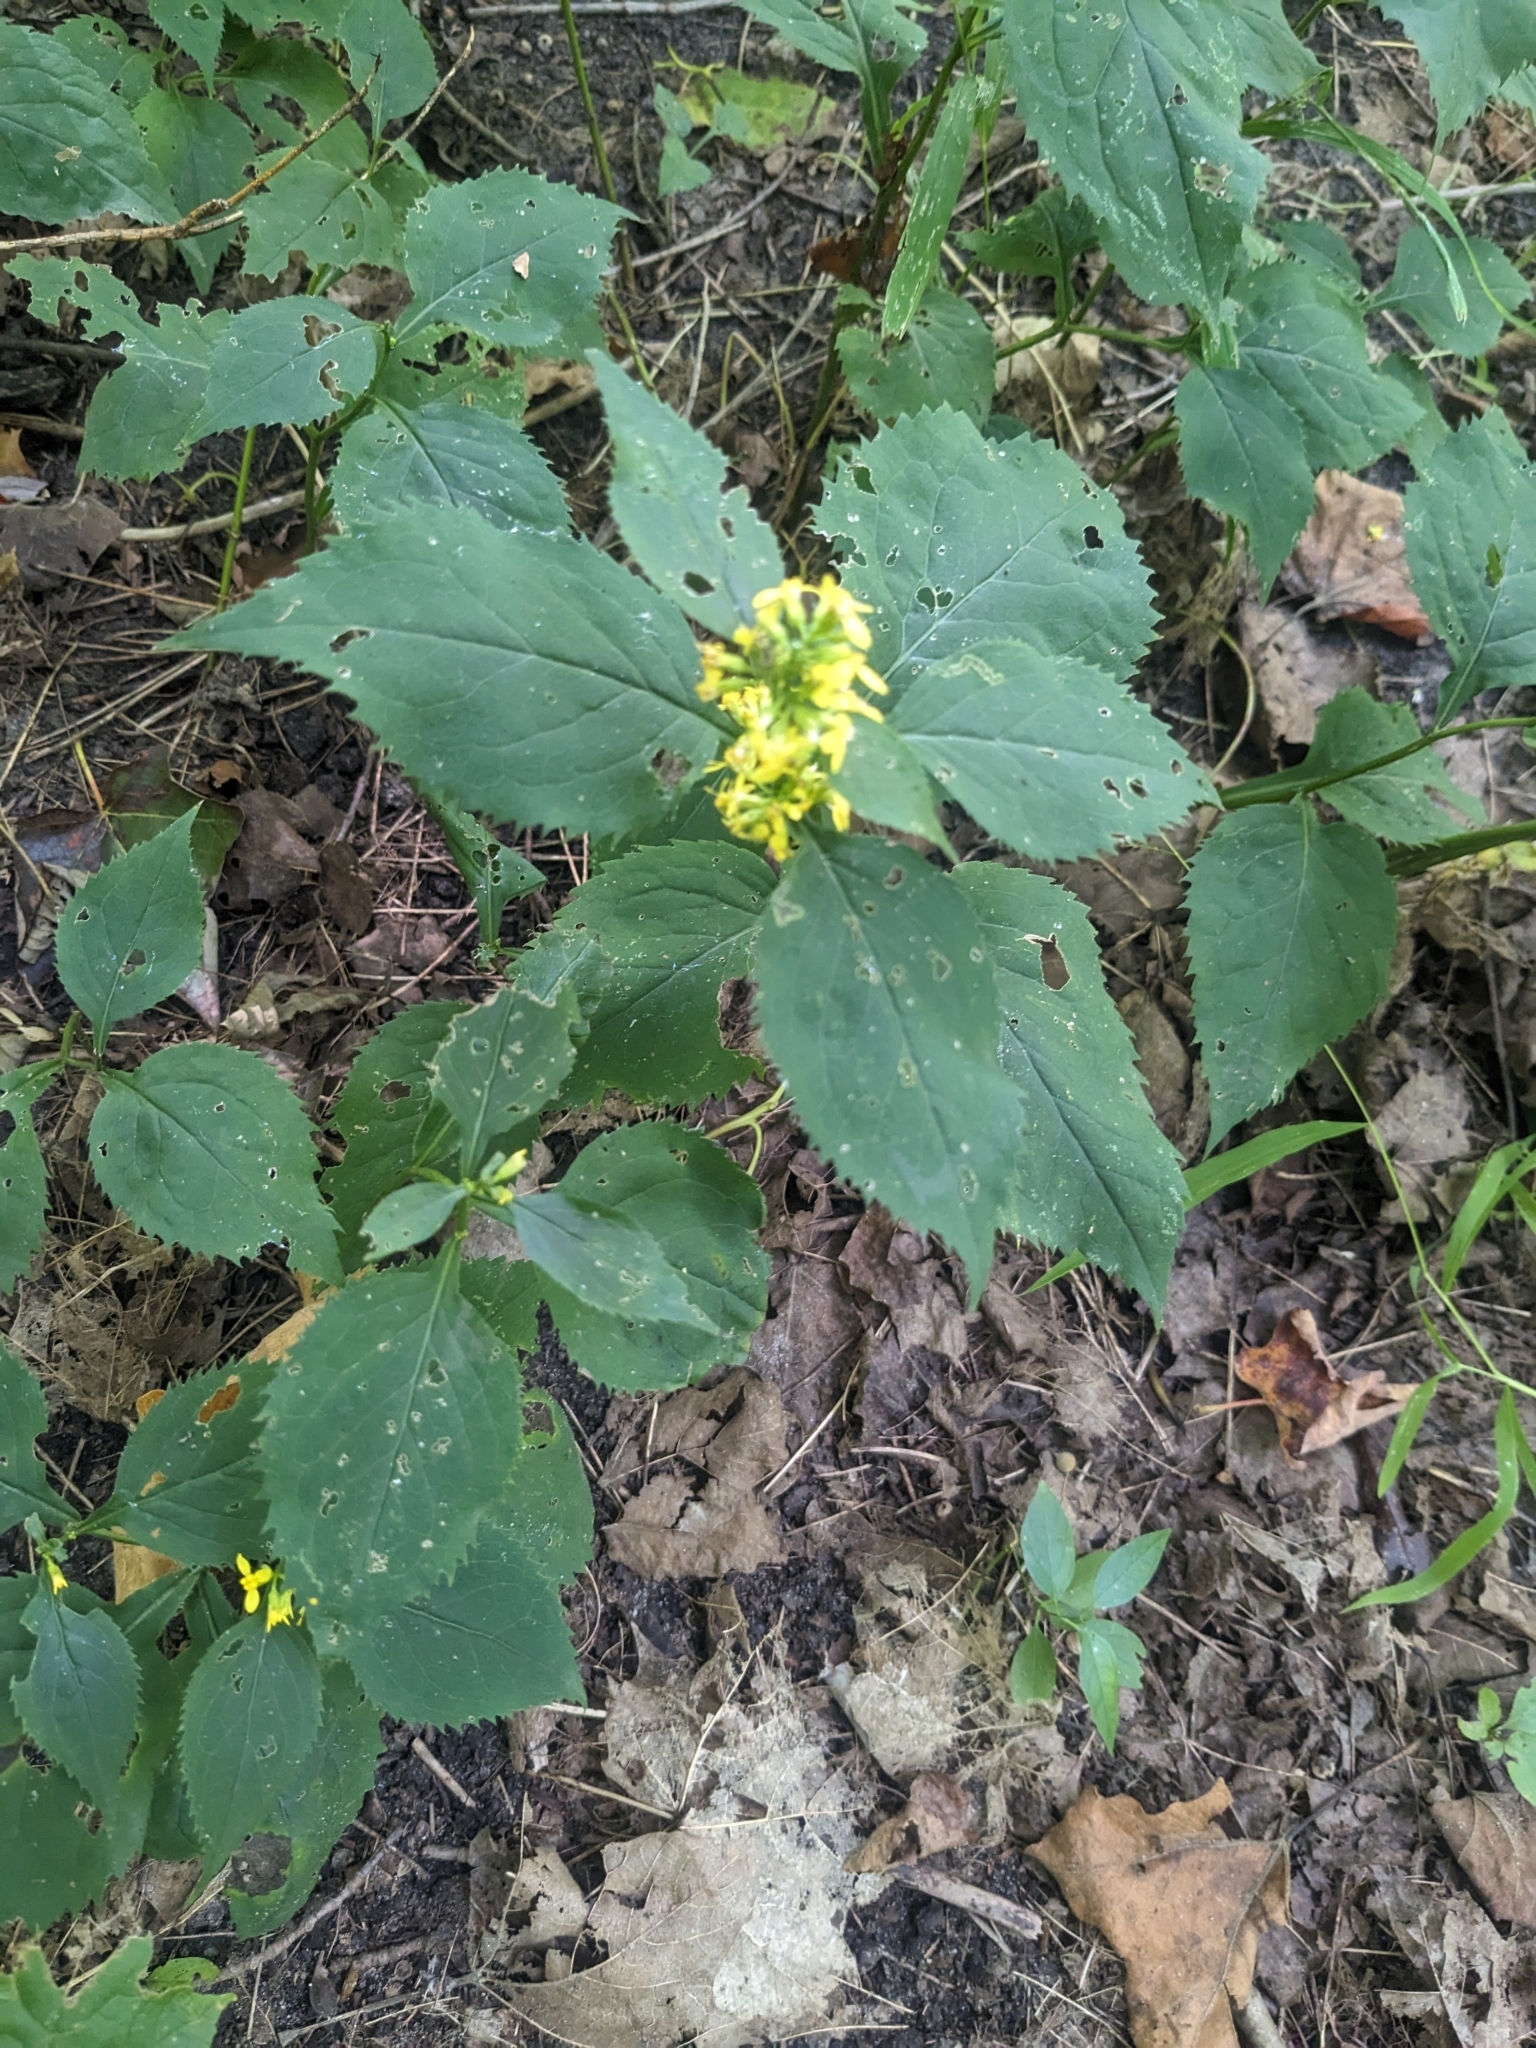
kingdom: Plantae
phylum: Tracheophyta
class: Magnoliopsida
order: Asterales
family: Asteraceae
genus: Solidago
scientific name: Solidago flexicaulis
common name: Zig-zag goldenrod
